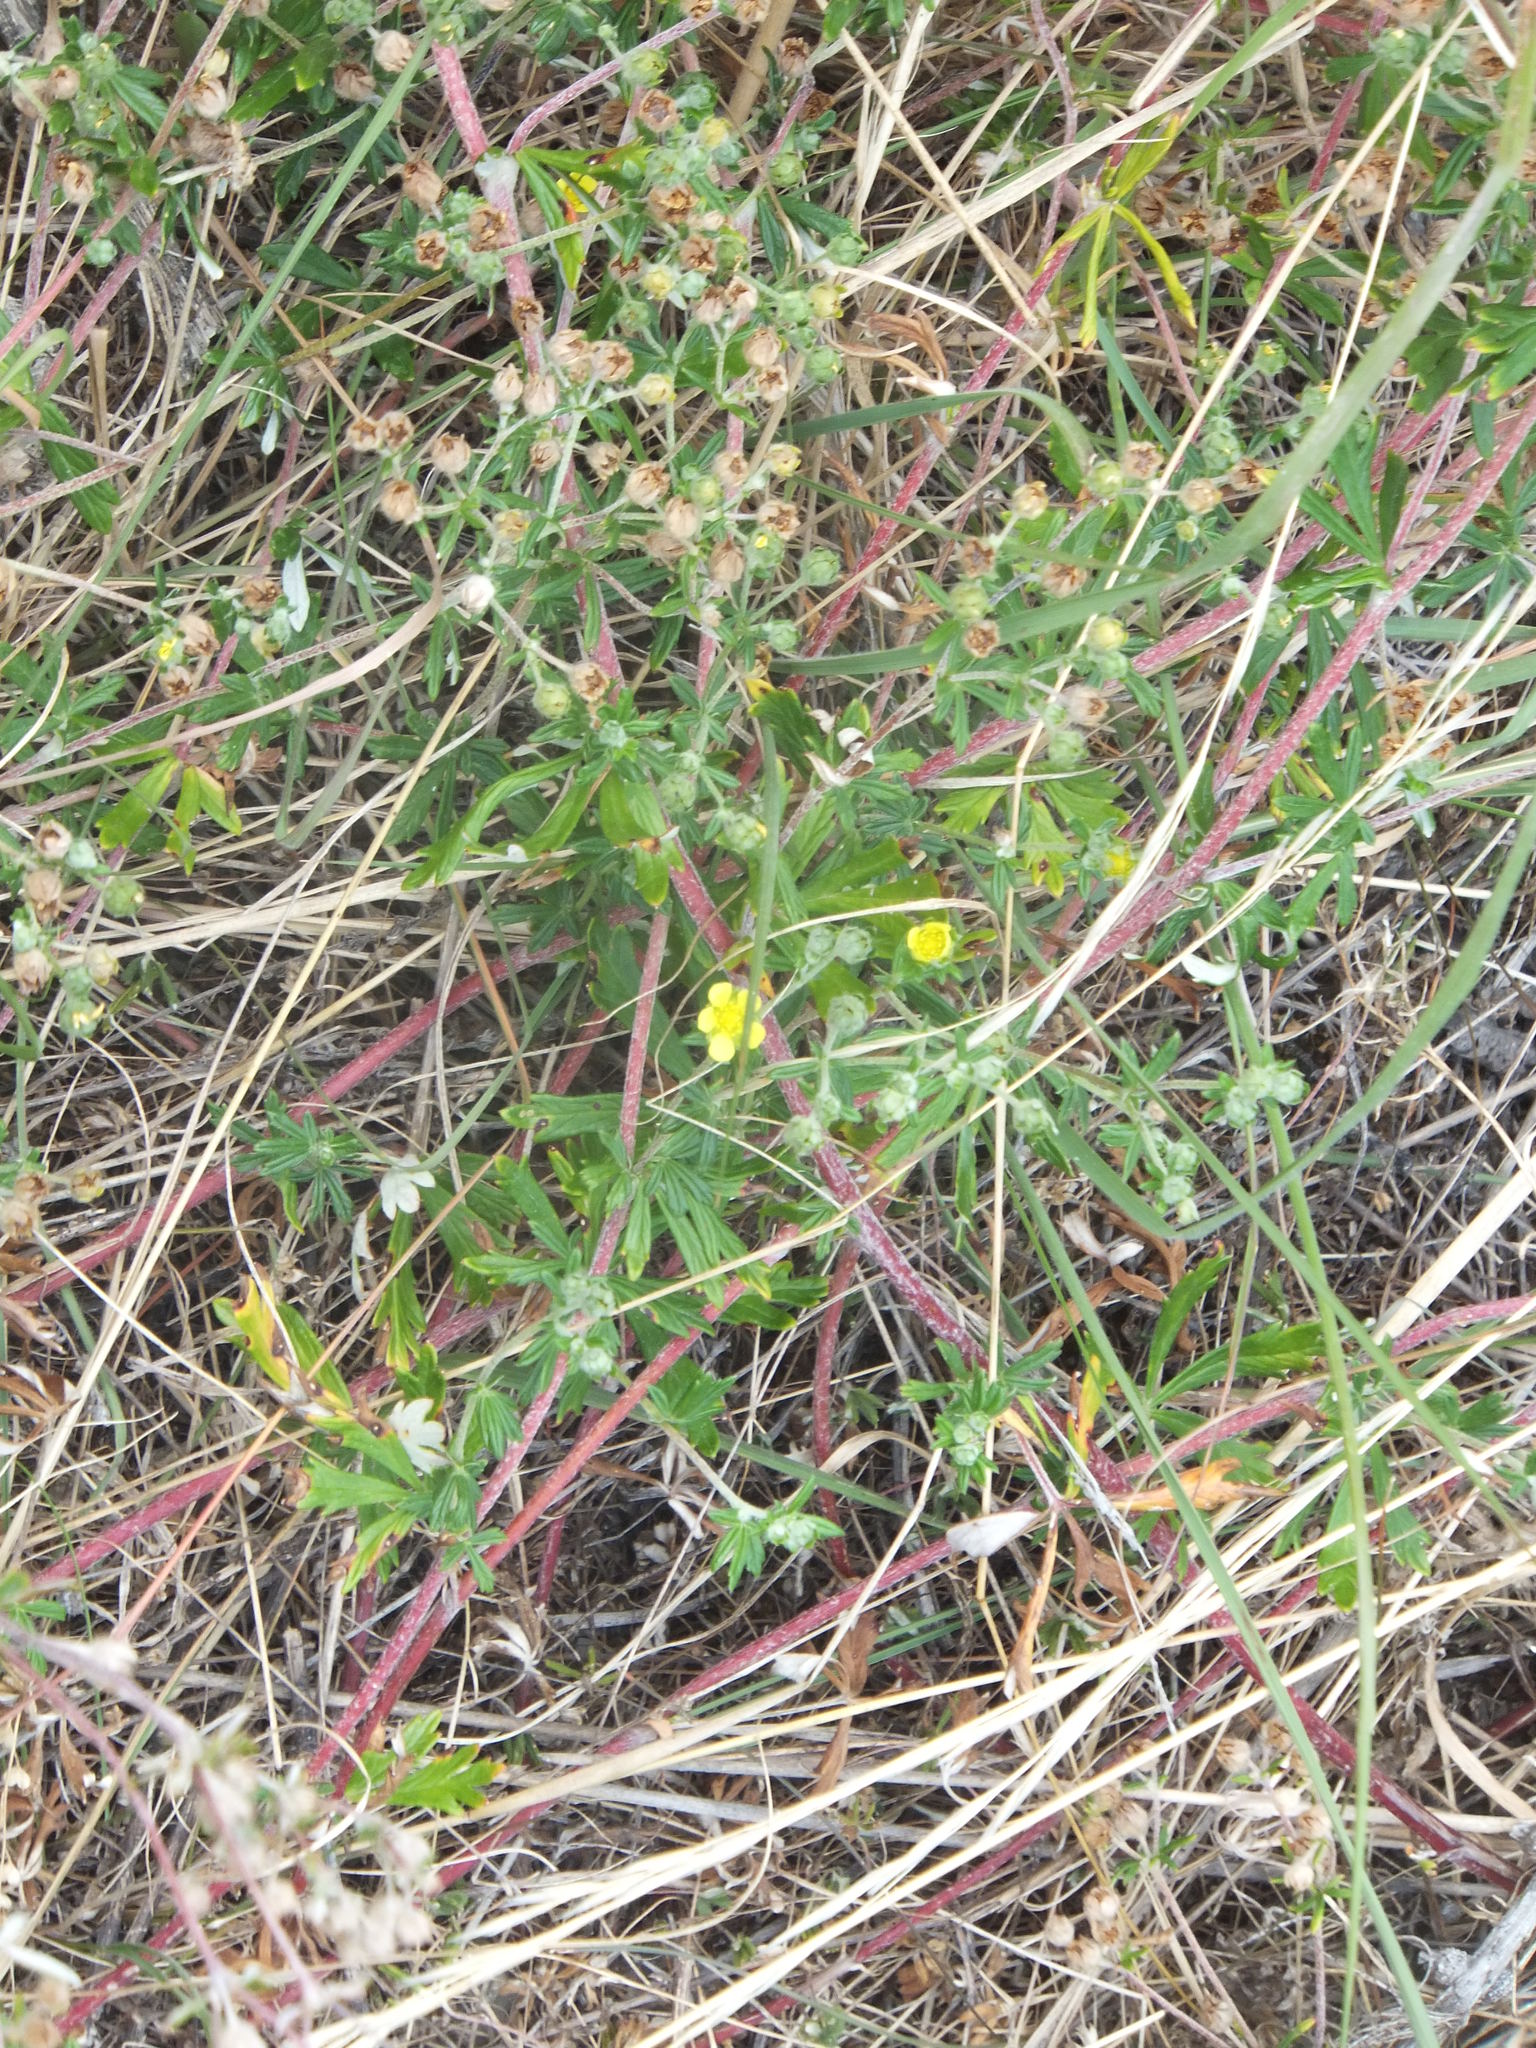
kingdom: Plantae
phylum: Tracheophyta
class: Magnoliopsida
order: Rosales
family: Rosaceae
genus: Potentilla
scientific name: Potentilla argentea
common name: Hoary cinquefoil
